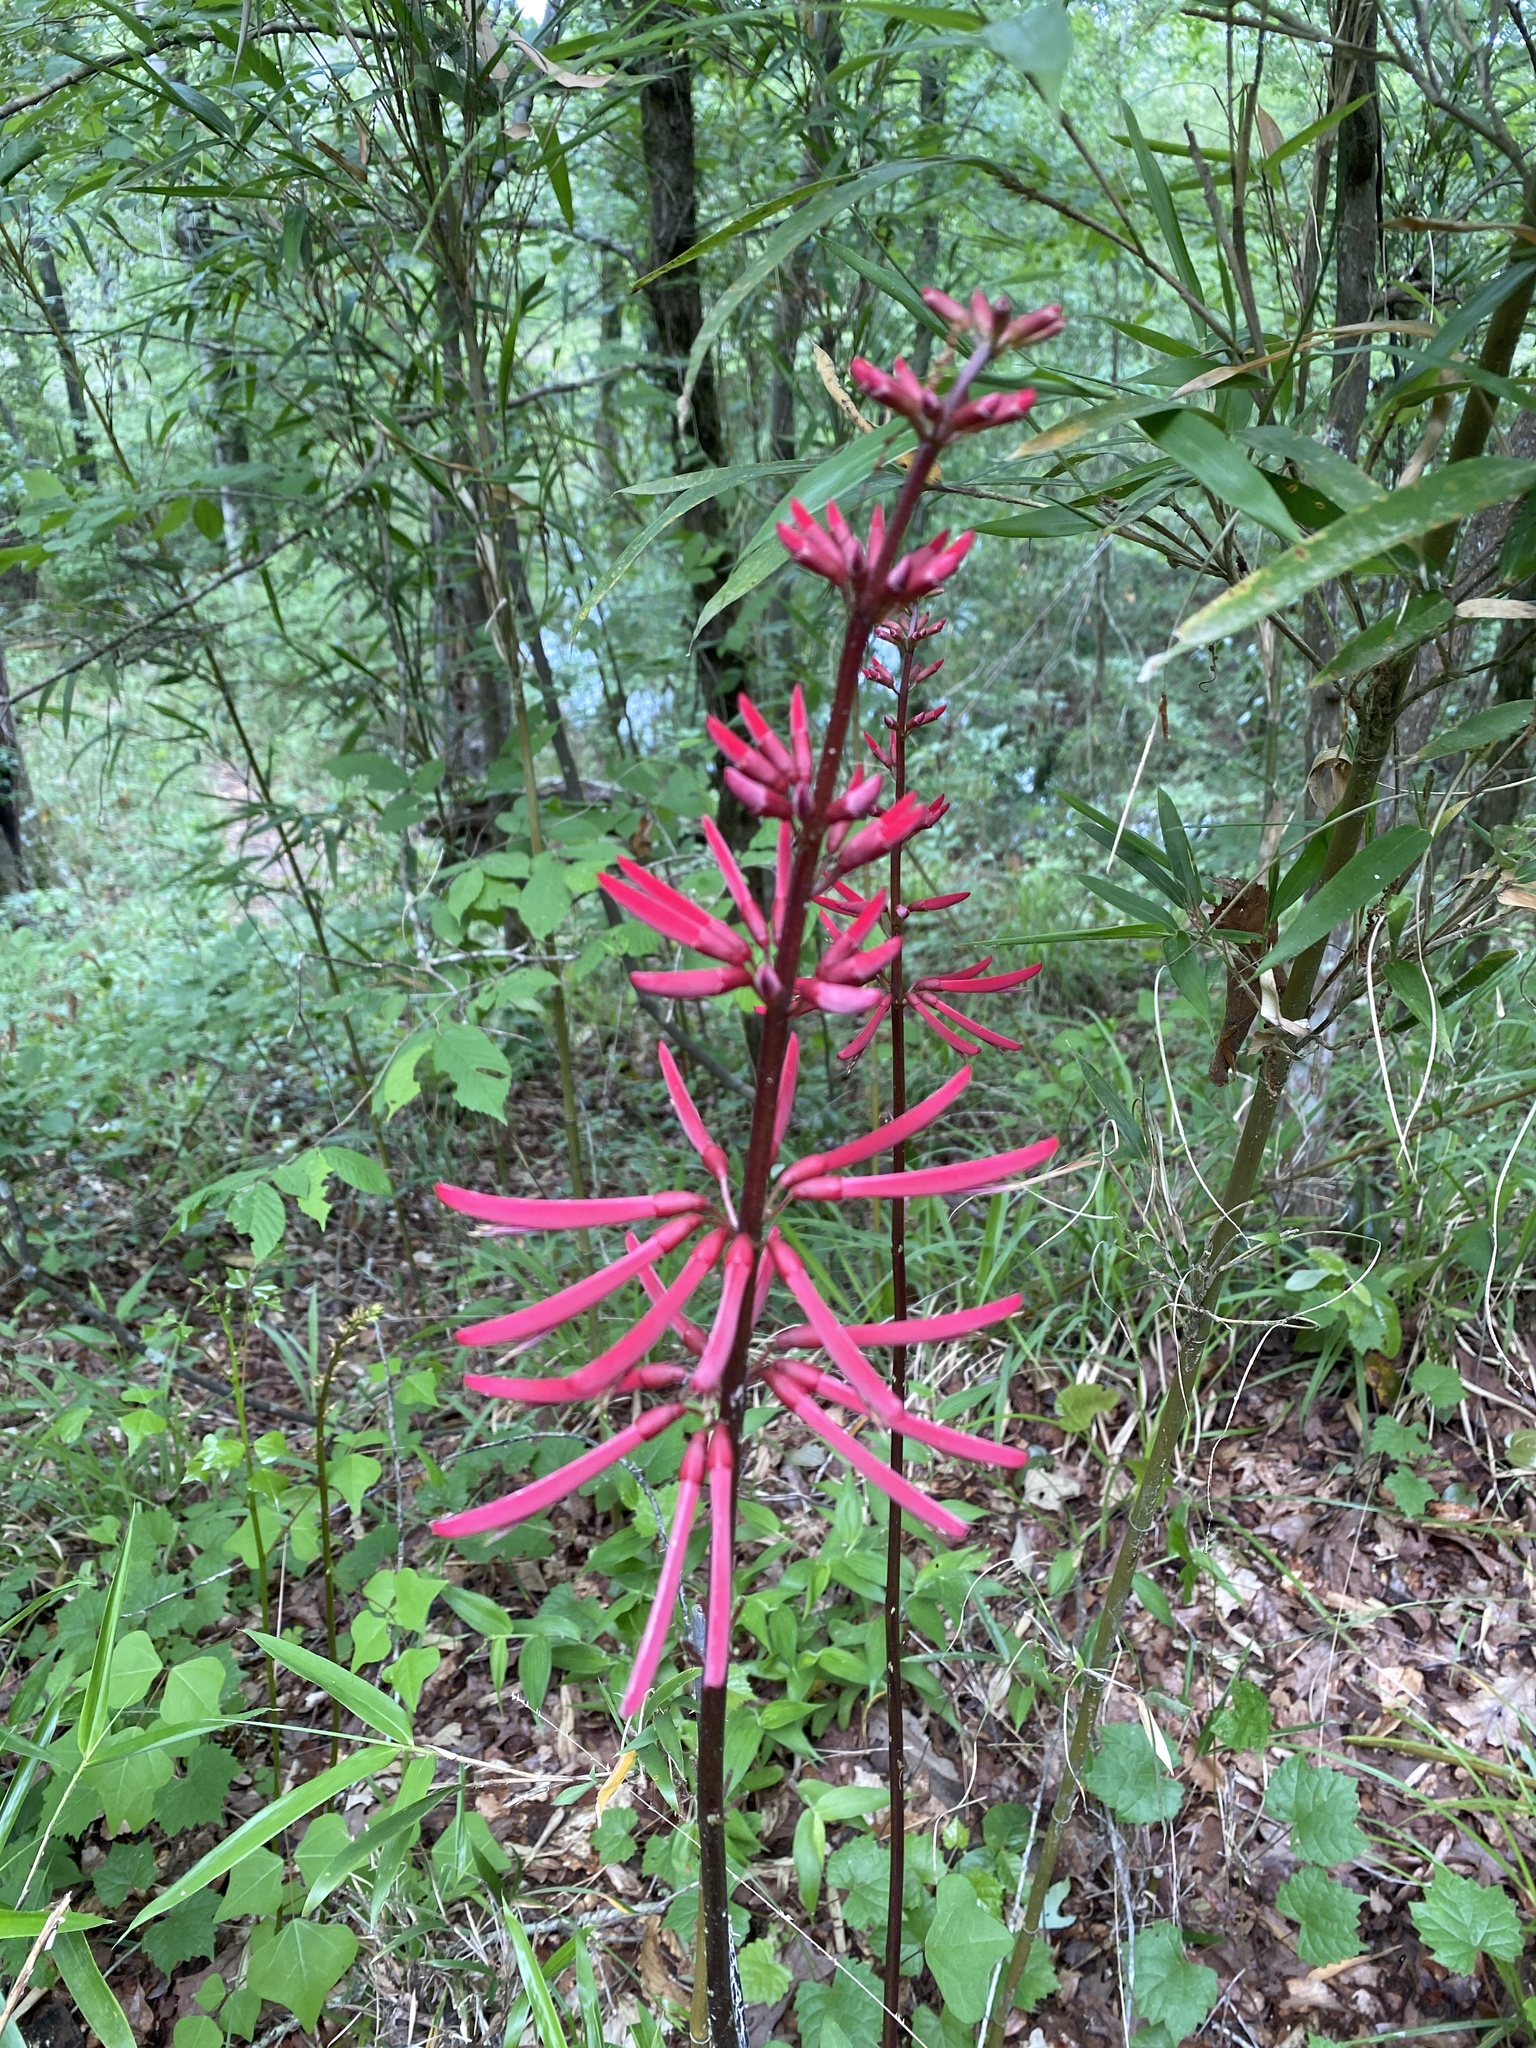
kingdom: Plantae
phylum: Tracheophyta
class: Magnoliopsida
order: Fabales
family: Fabaceae
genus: Erythrina
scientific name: Erythrina herbacea
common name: Coral-bean
